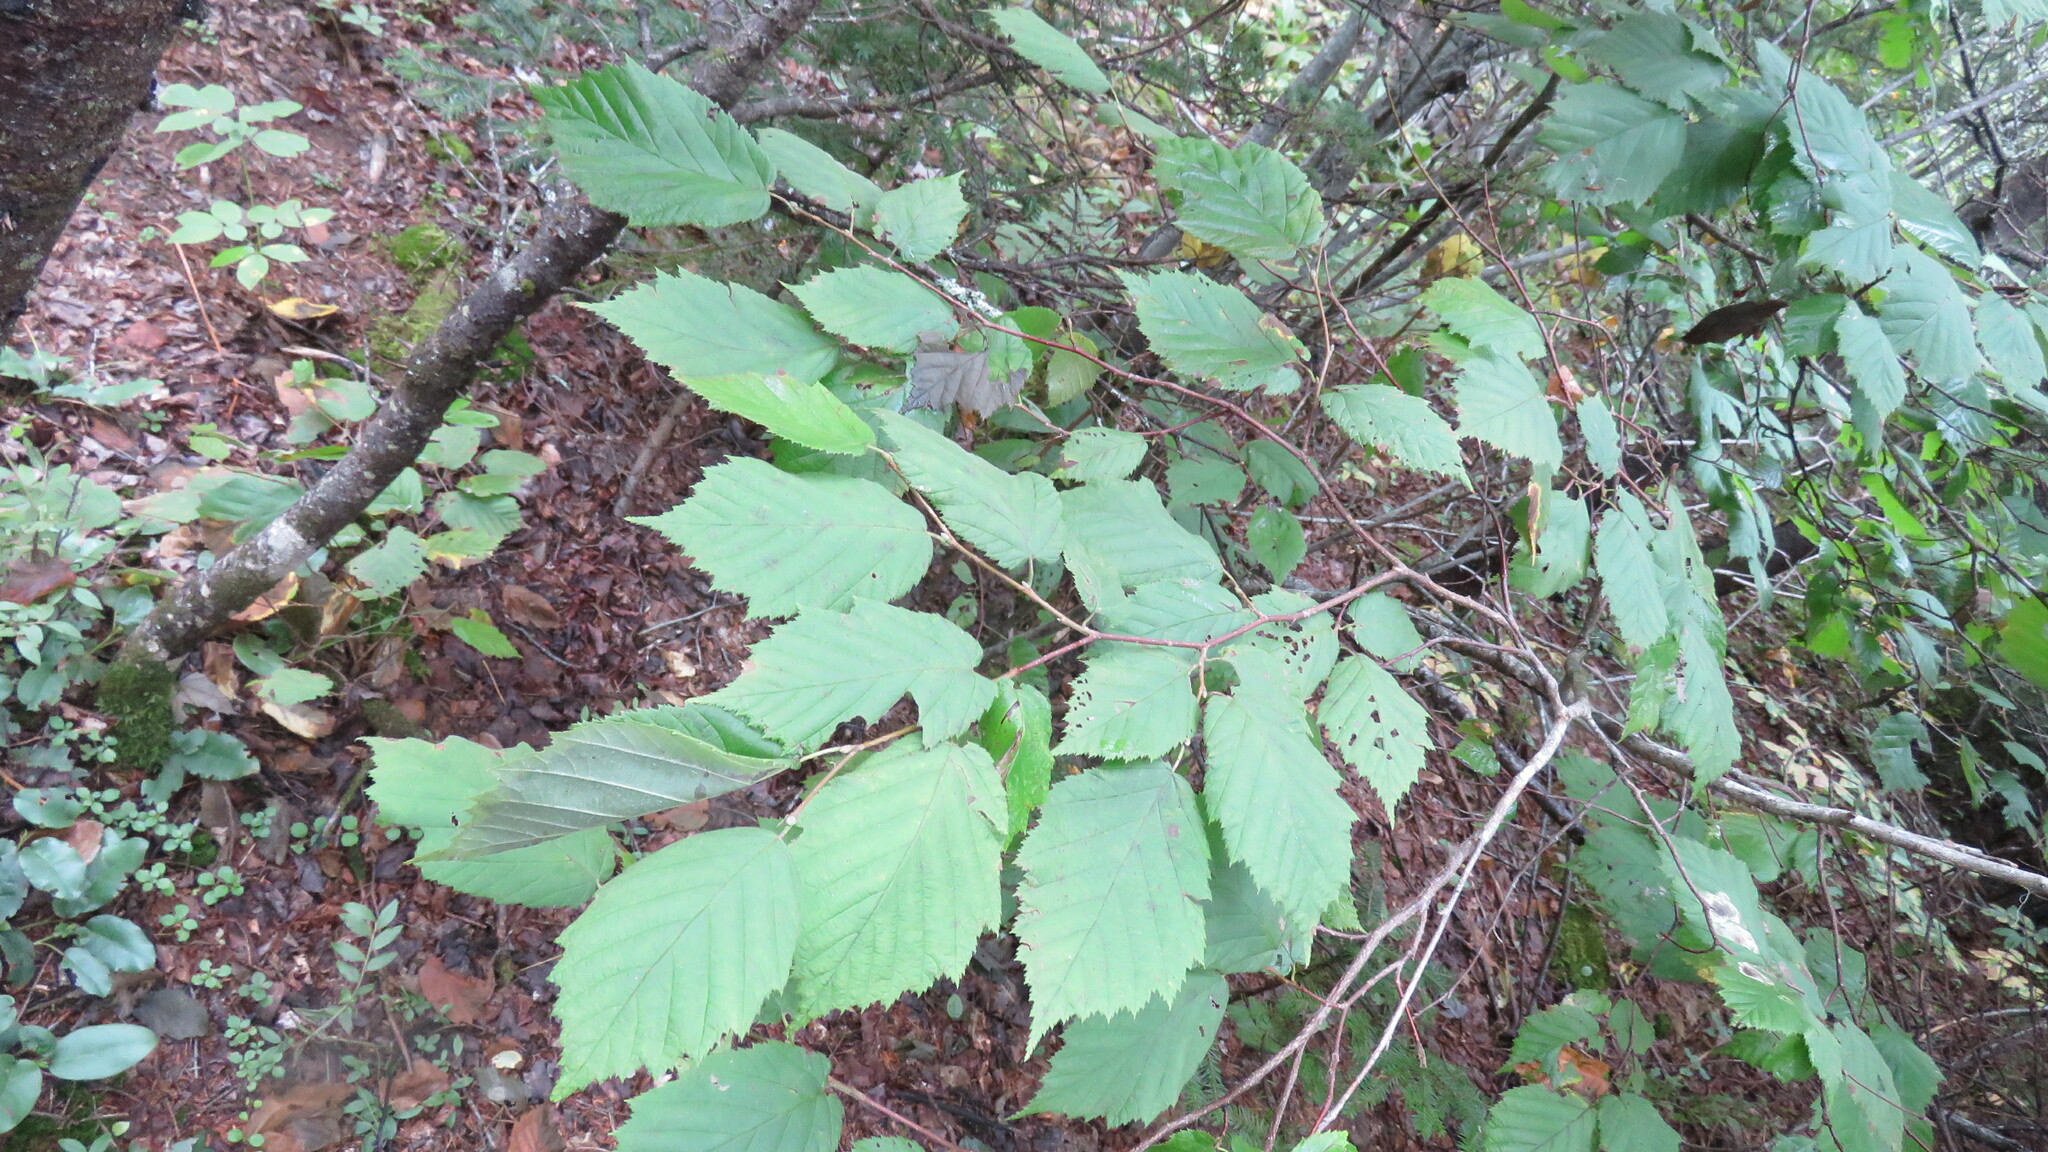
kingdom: Plantae
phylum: Tracheophyta
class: Magnoliopsida
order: Fagales
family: Betulaceae
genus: Corylus
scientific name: Corylus cornuta
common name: Beaked hazel
